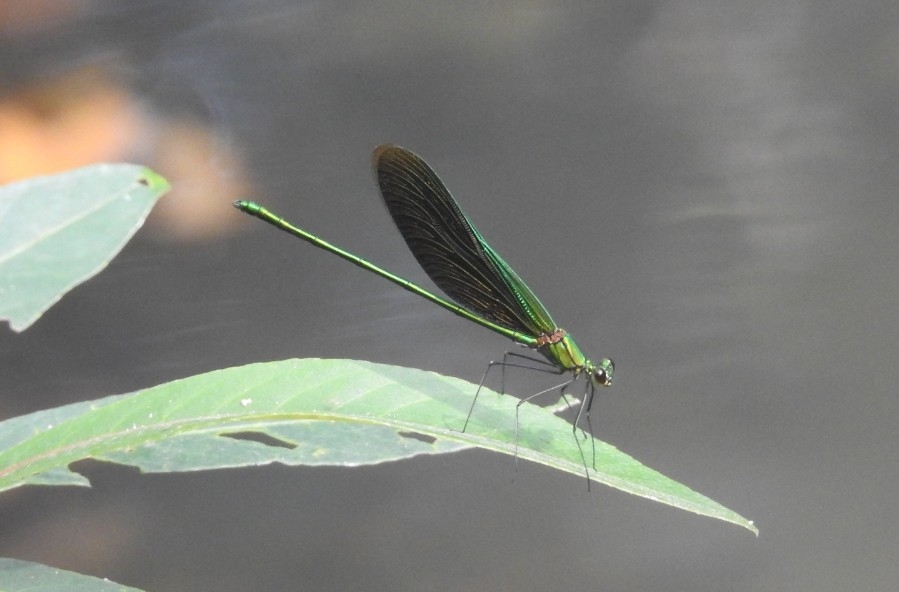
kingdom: Animalia
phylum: Arthropoda
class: Insecta
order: Odonata
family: Calopterygidae
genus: Neurobasis
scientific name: Neurobasis chinensis
